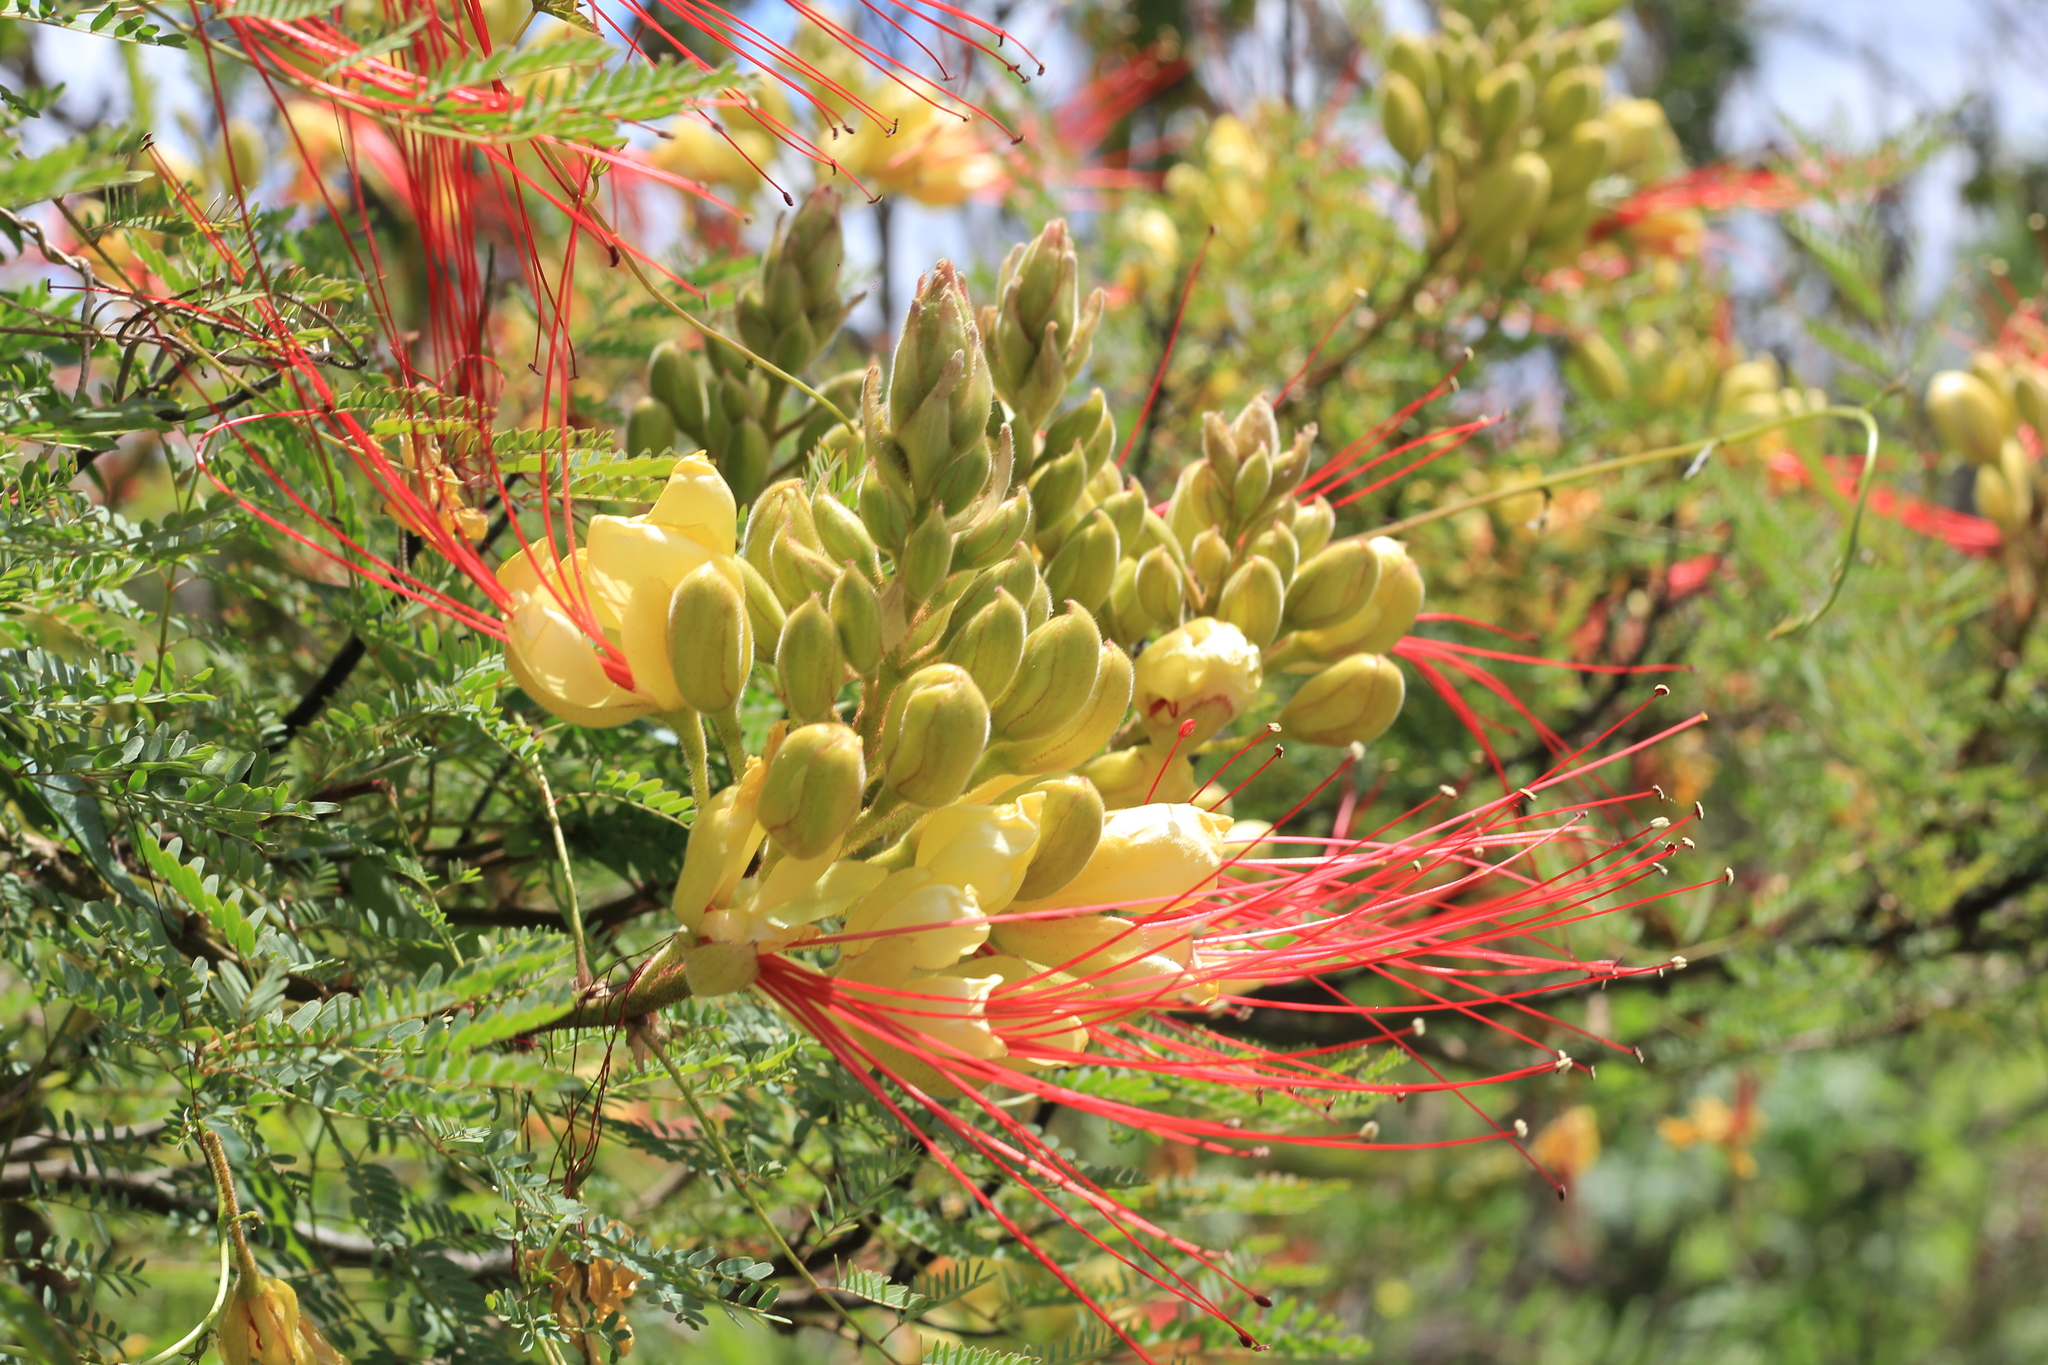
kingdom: Plantae
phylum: Tracheophyta
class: Magnoliopsida
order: Fabales
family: Fabaceae
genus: Erythrostemon
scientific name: Erythrostemon gilliesii
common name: Bird-of-paradise shrub
